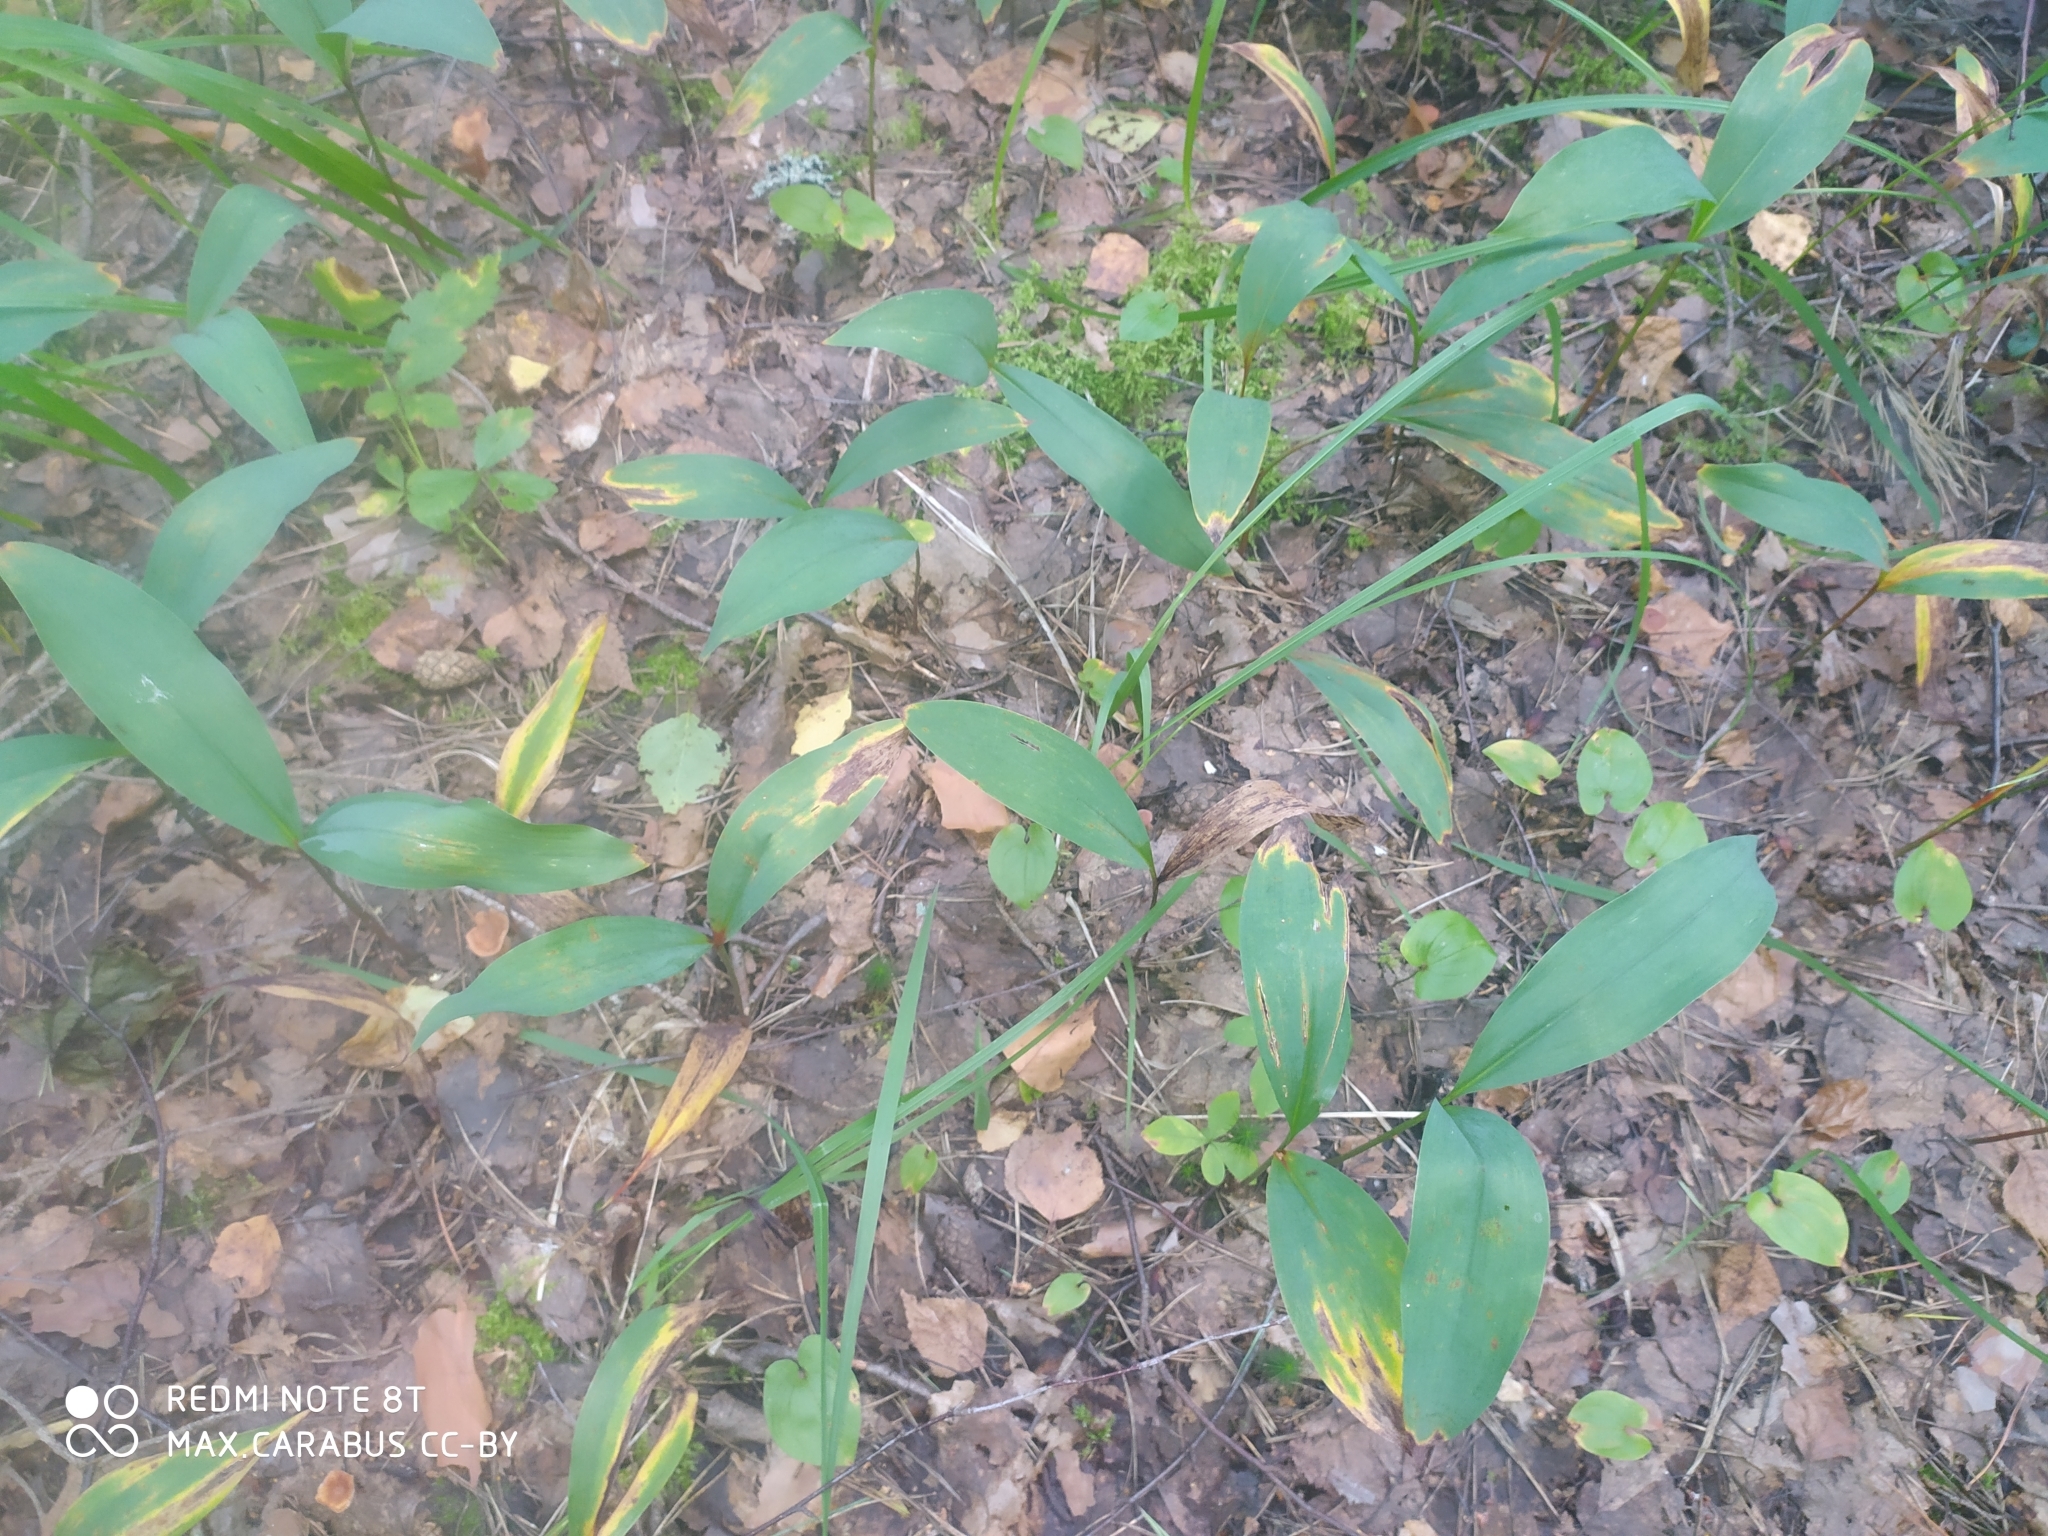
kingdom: Plantae
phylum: Tracheophyta
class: Liliopsida
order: Asparagales
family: Asparagaceae
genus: Convallaria
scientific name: Convallaria majalis
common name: Lily-of-the-valley
